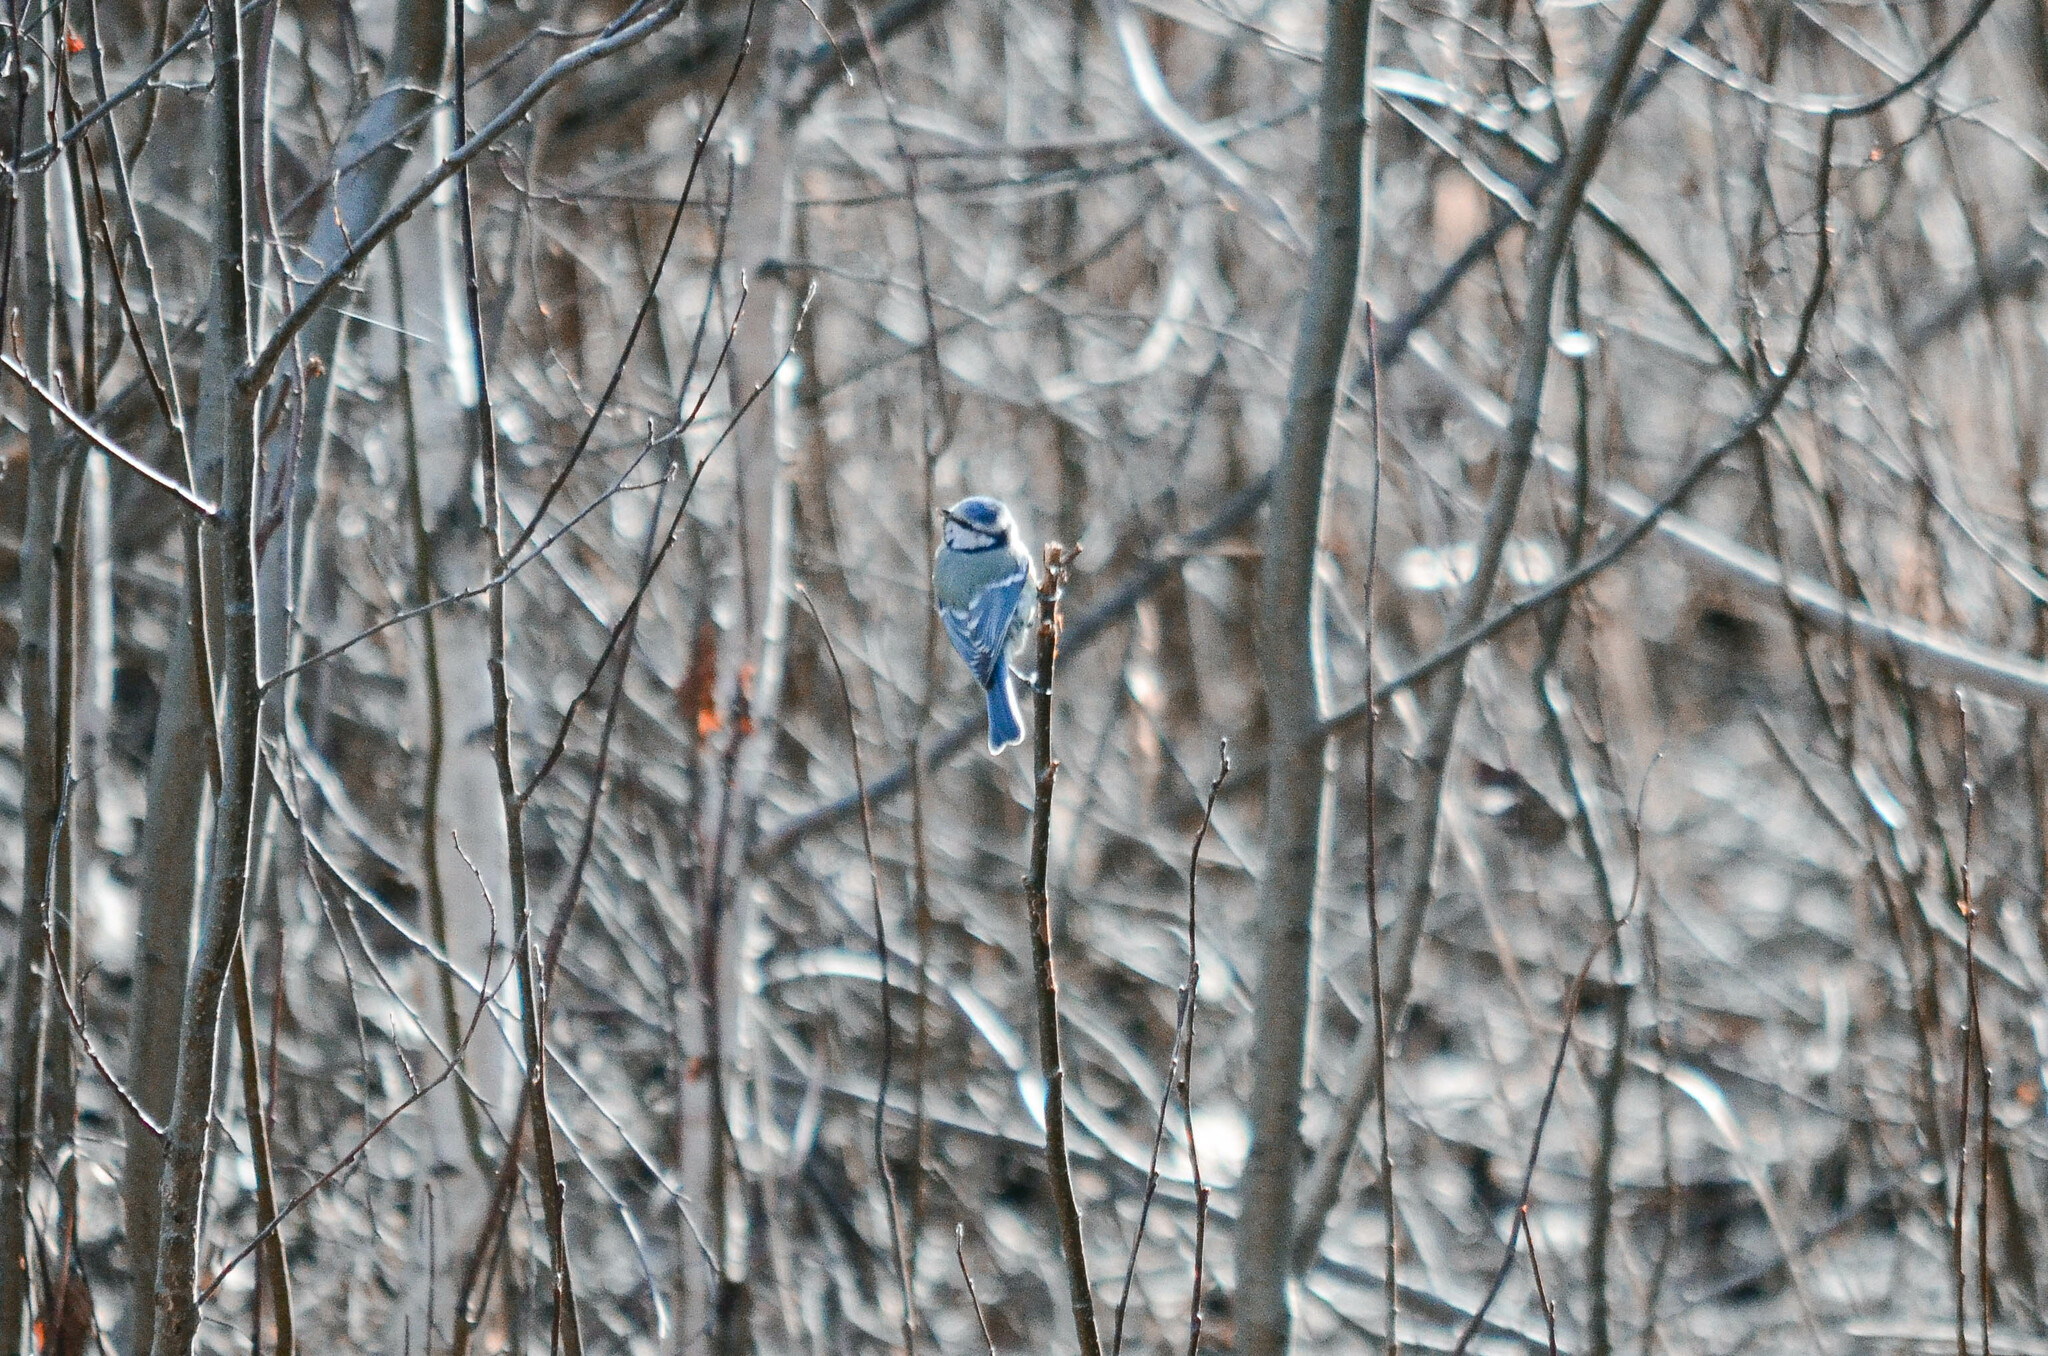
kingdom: Animalia
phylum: Chordata
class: Aves
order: Passeriformes
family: Paridae
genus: Cyanistes
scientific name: Cyanistes caeruleus
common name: Eurasian blue tit
